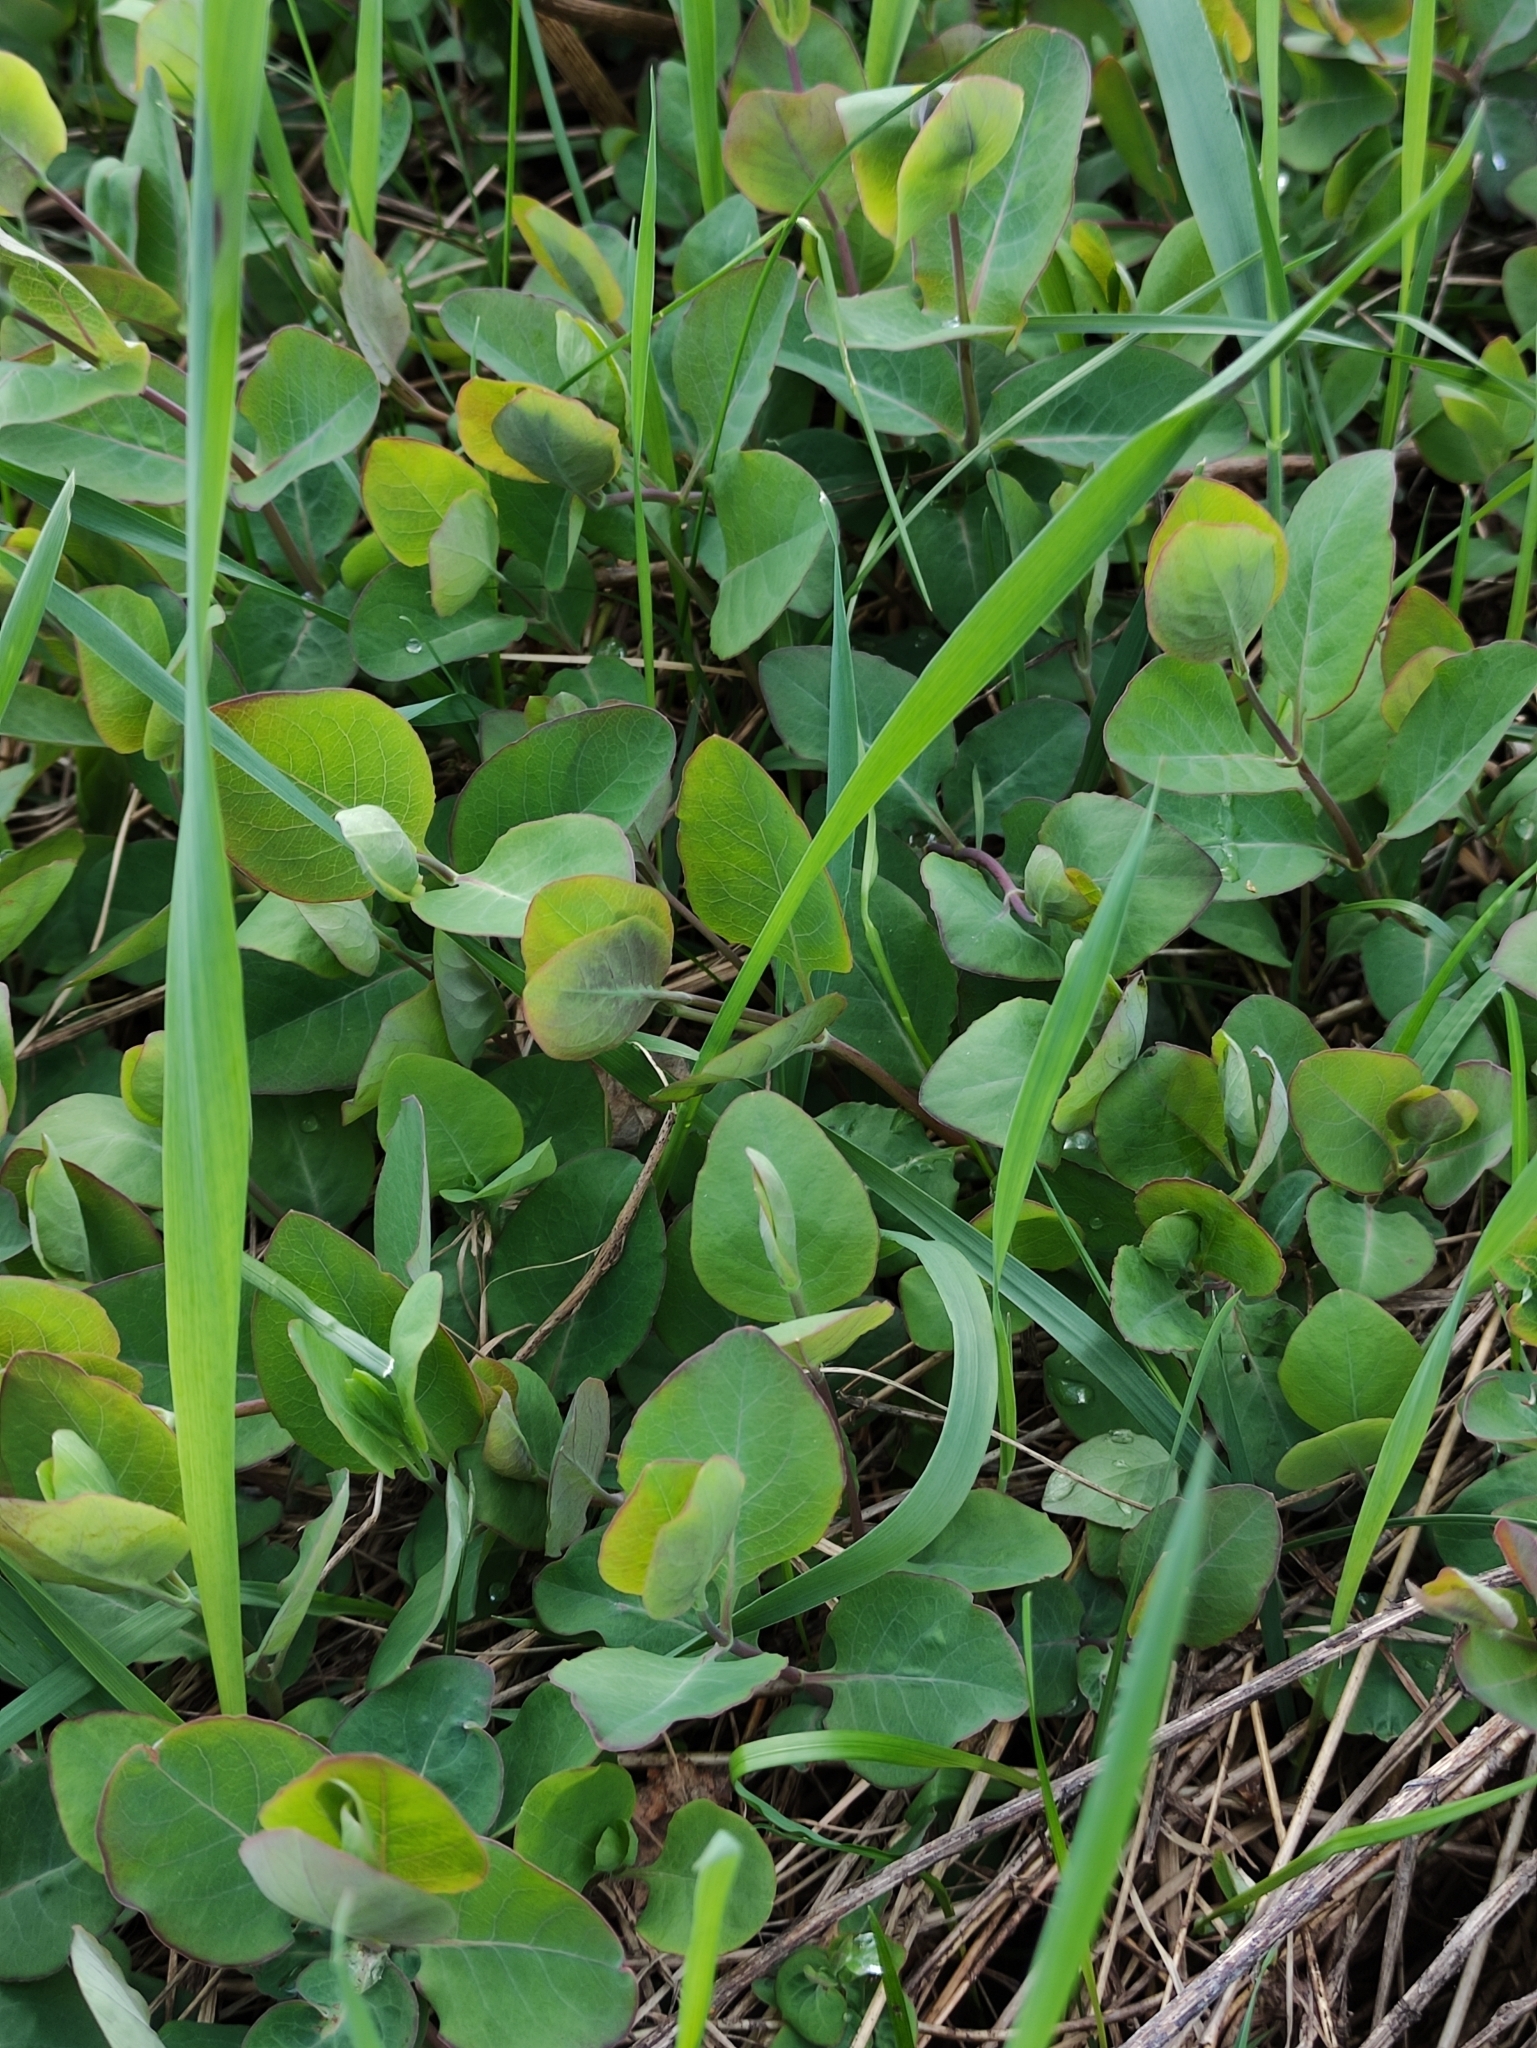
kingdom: Plantae
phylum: Tracheophyta
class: Magnoliopsida
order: Dipsacales
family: Caprifoliaceae
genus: Lonicera
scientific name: Lonicera caprifolium
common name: Perfoliate honeysuckle
